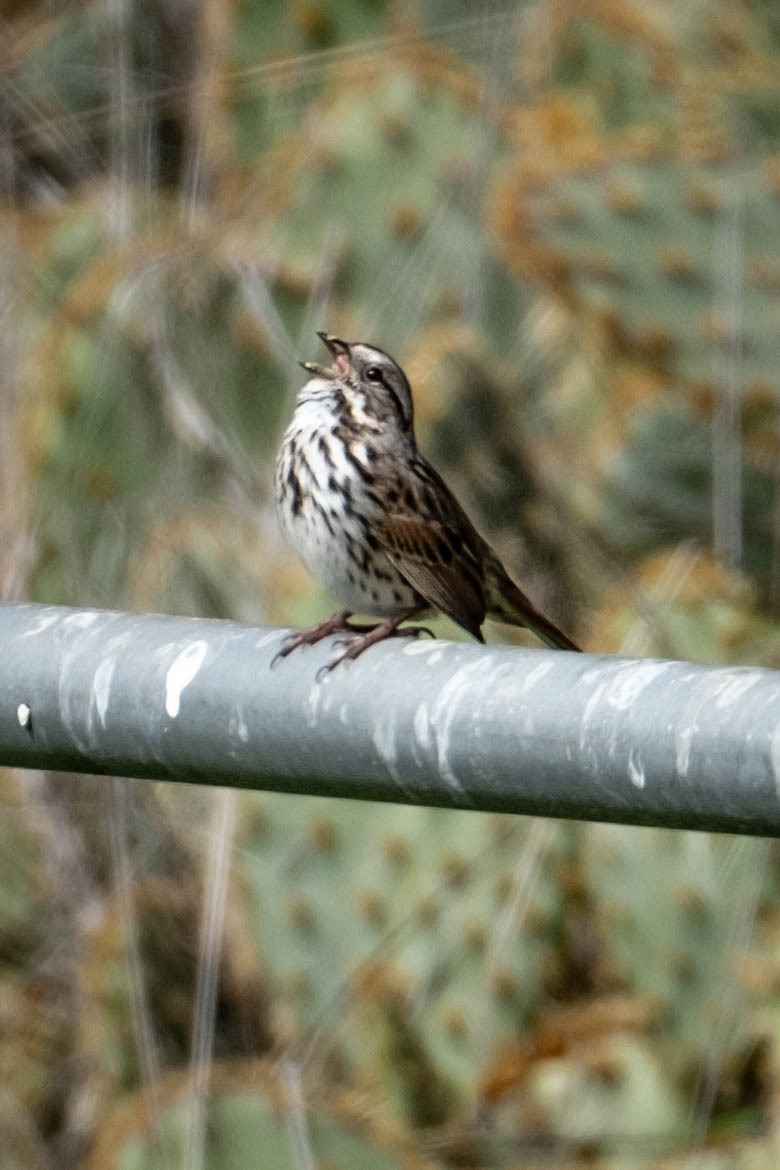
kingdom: Animalia
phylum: Chordata
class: Aves
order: Passeriformes
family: Passerellidae
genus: Melospiza
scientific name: Melospiza melodia
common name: Song sparrow
